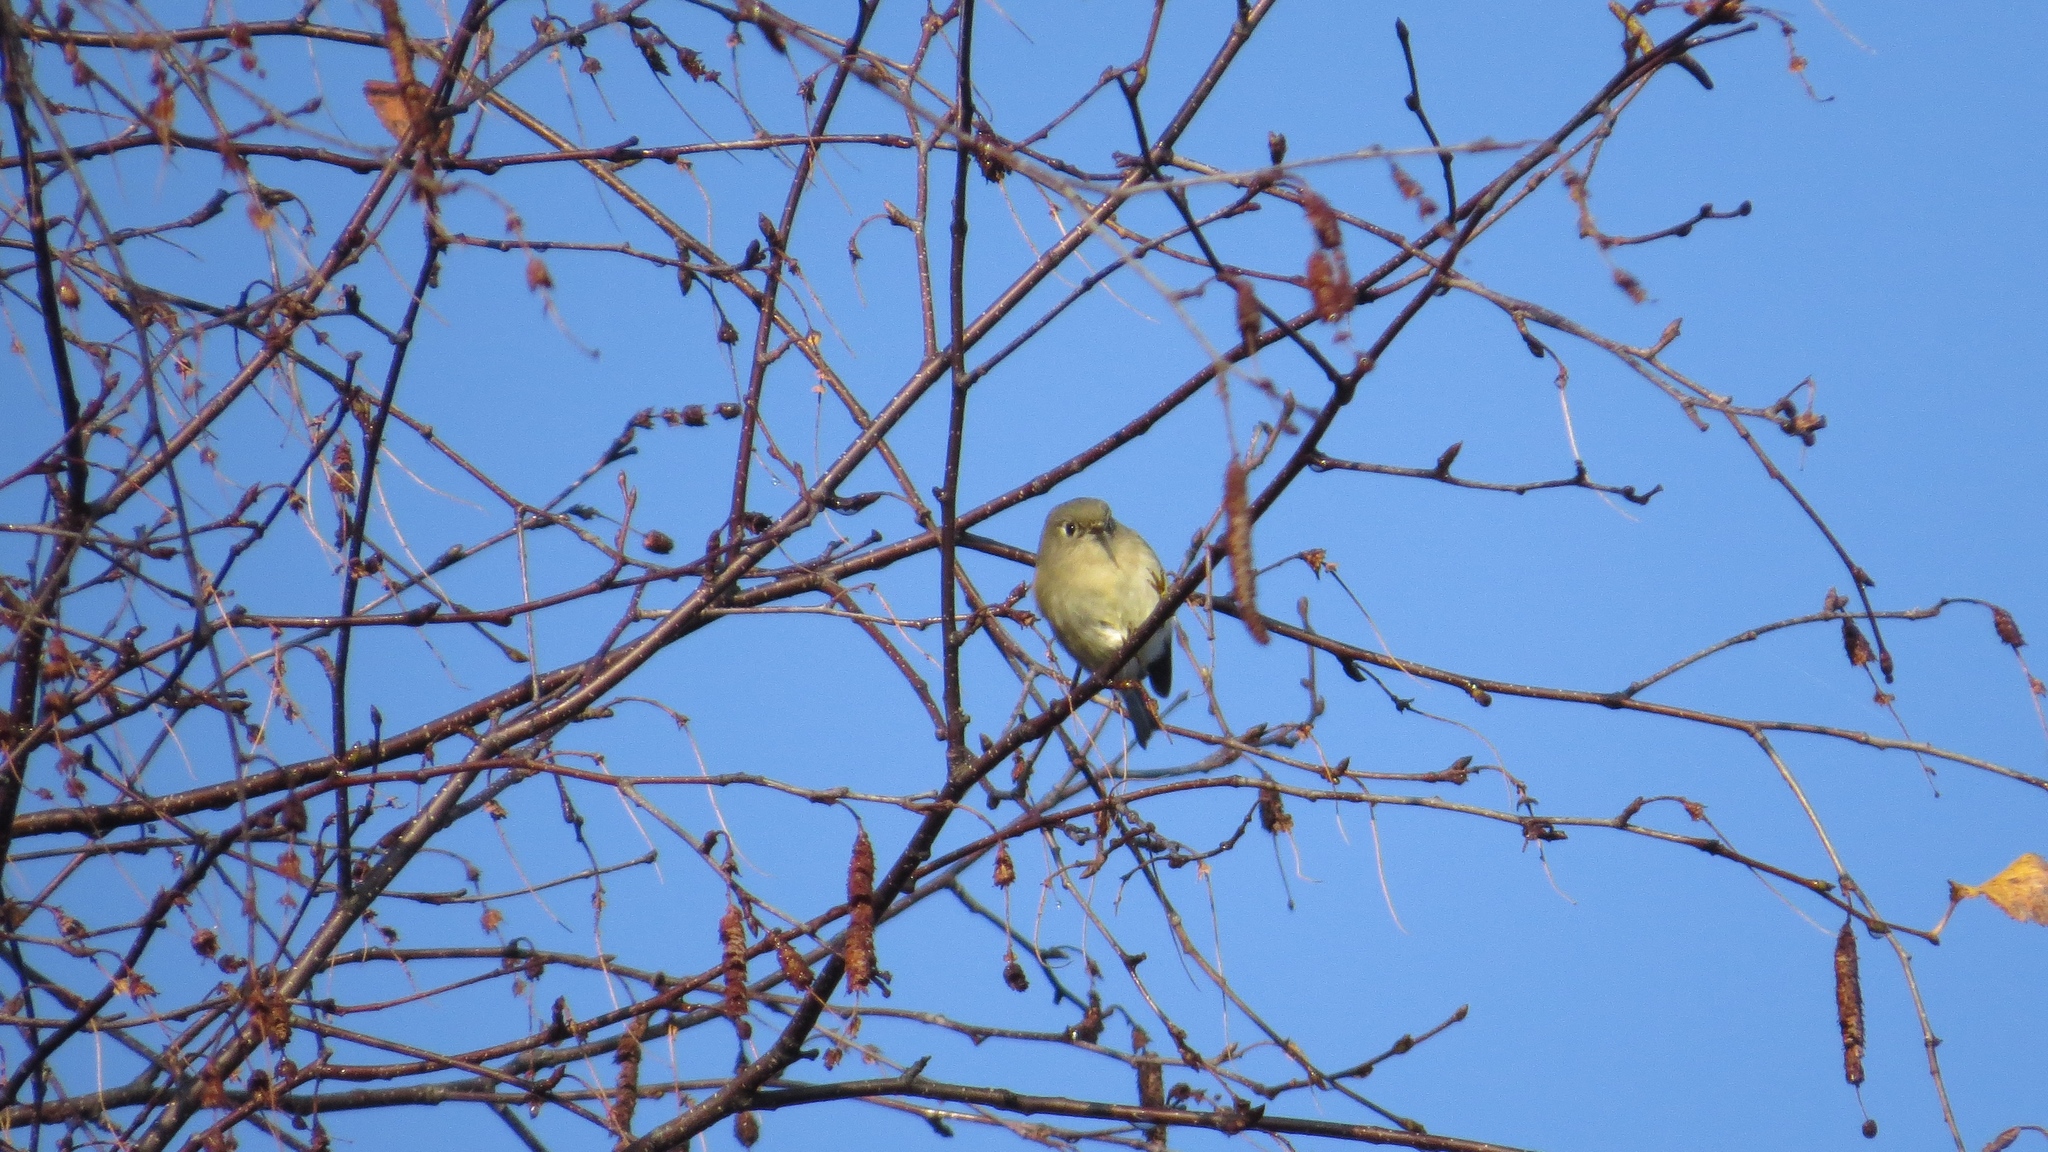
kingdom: Animalia
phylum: Chordata
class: Aves
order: Passeriformes
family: Regulidae
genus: Regulus
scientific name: Regulus calendula
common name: Ruby-crowned kinglet
